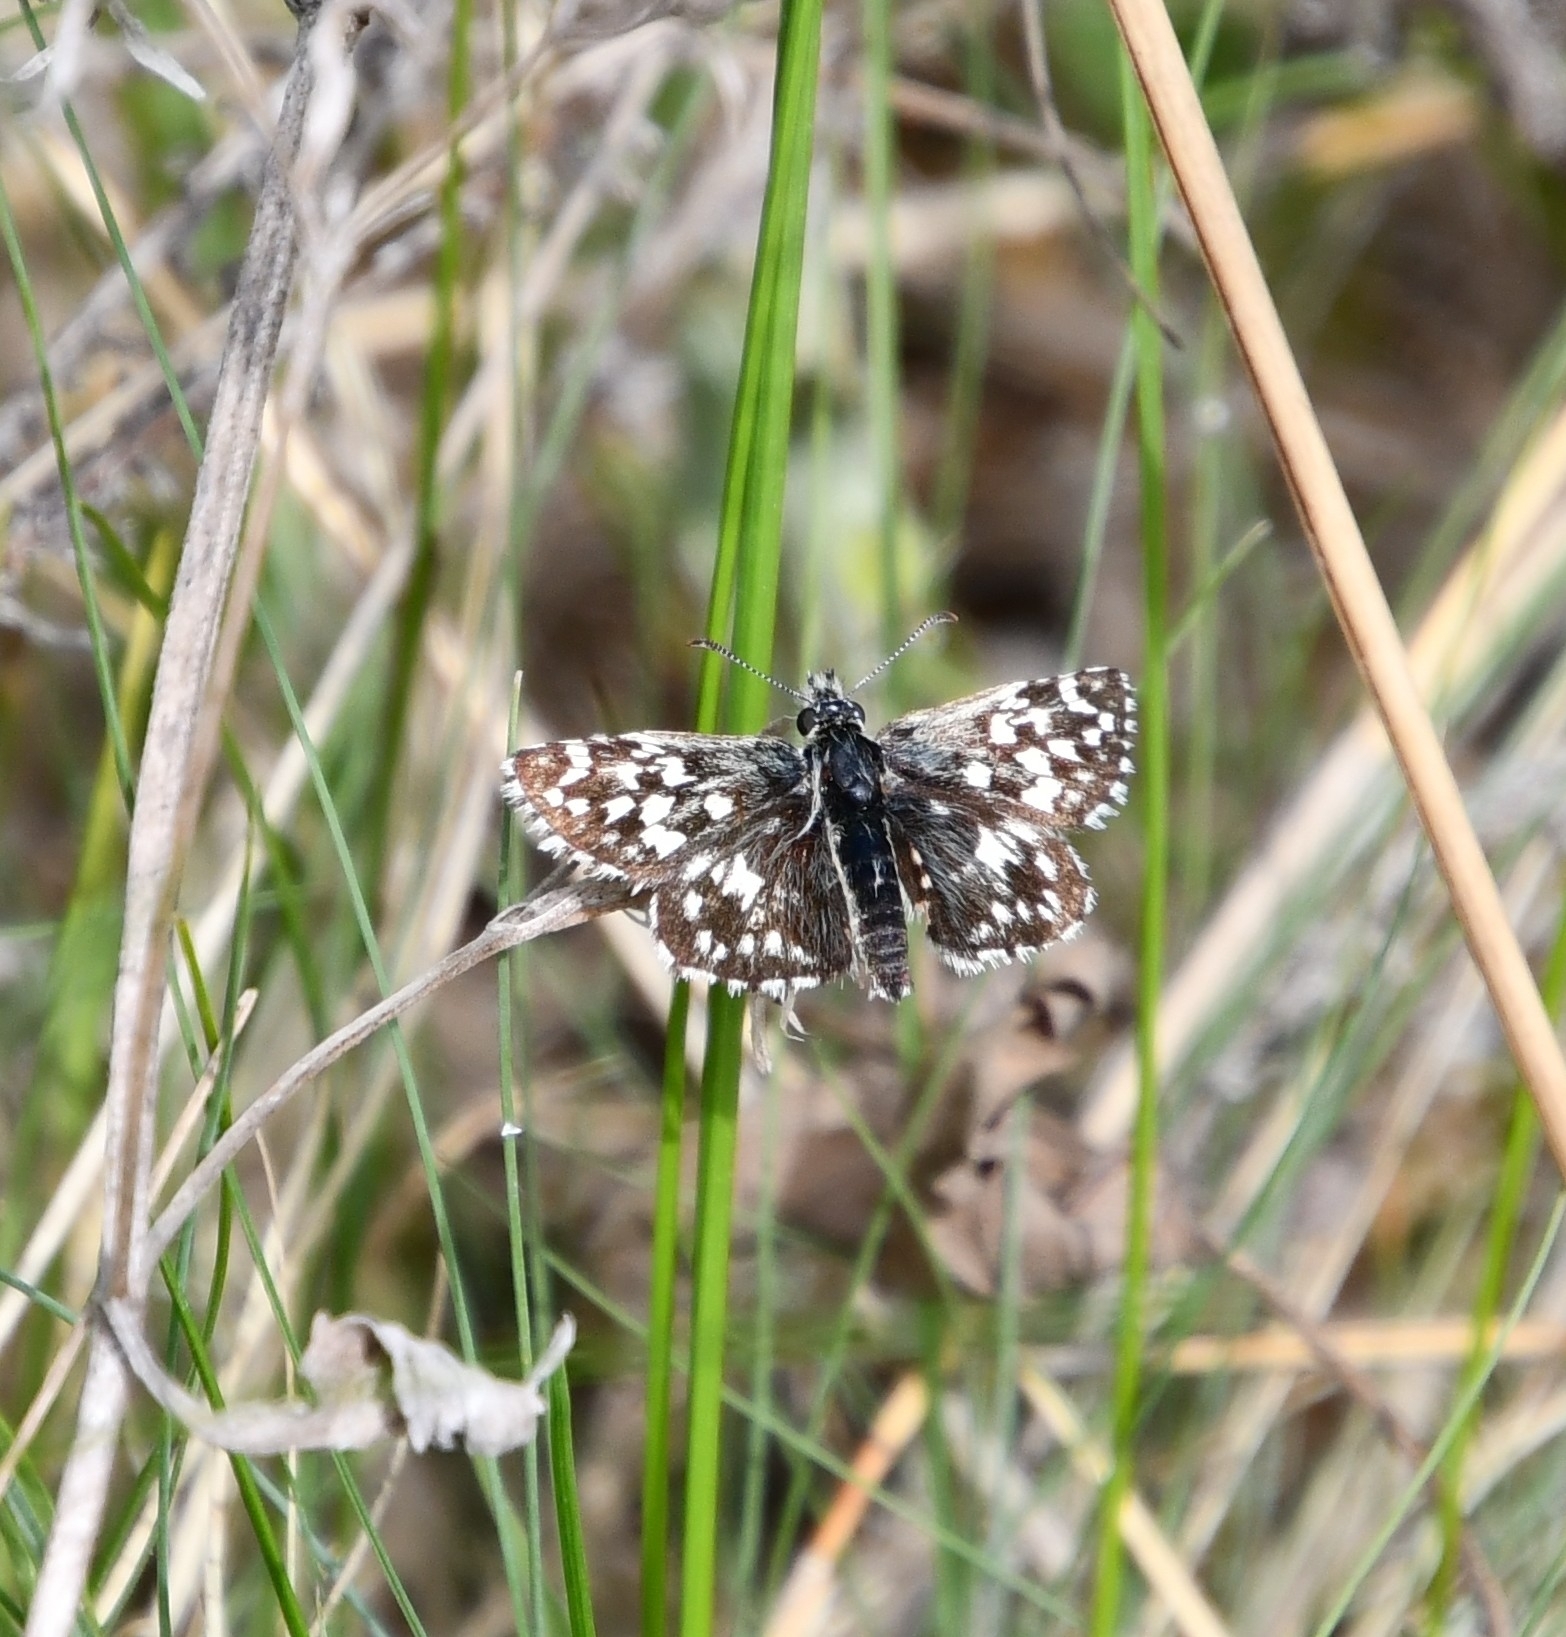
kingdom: Animalia
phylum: Arthropoda
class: Insecta
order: Lepidoptera
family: Hesperiidae
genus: Pyrgus
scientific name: Pyrgus malvae
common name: Grizzled skipper
